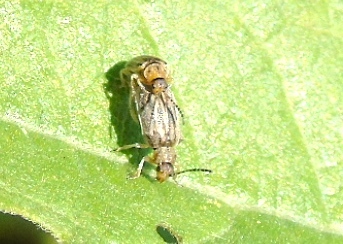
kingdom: Animalia
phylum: Arthropoda
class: Insecta
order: Coleoptera
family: Chrysomelidae
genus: Galerucini
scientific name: Galerucini
